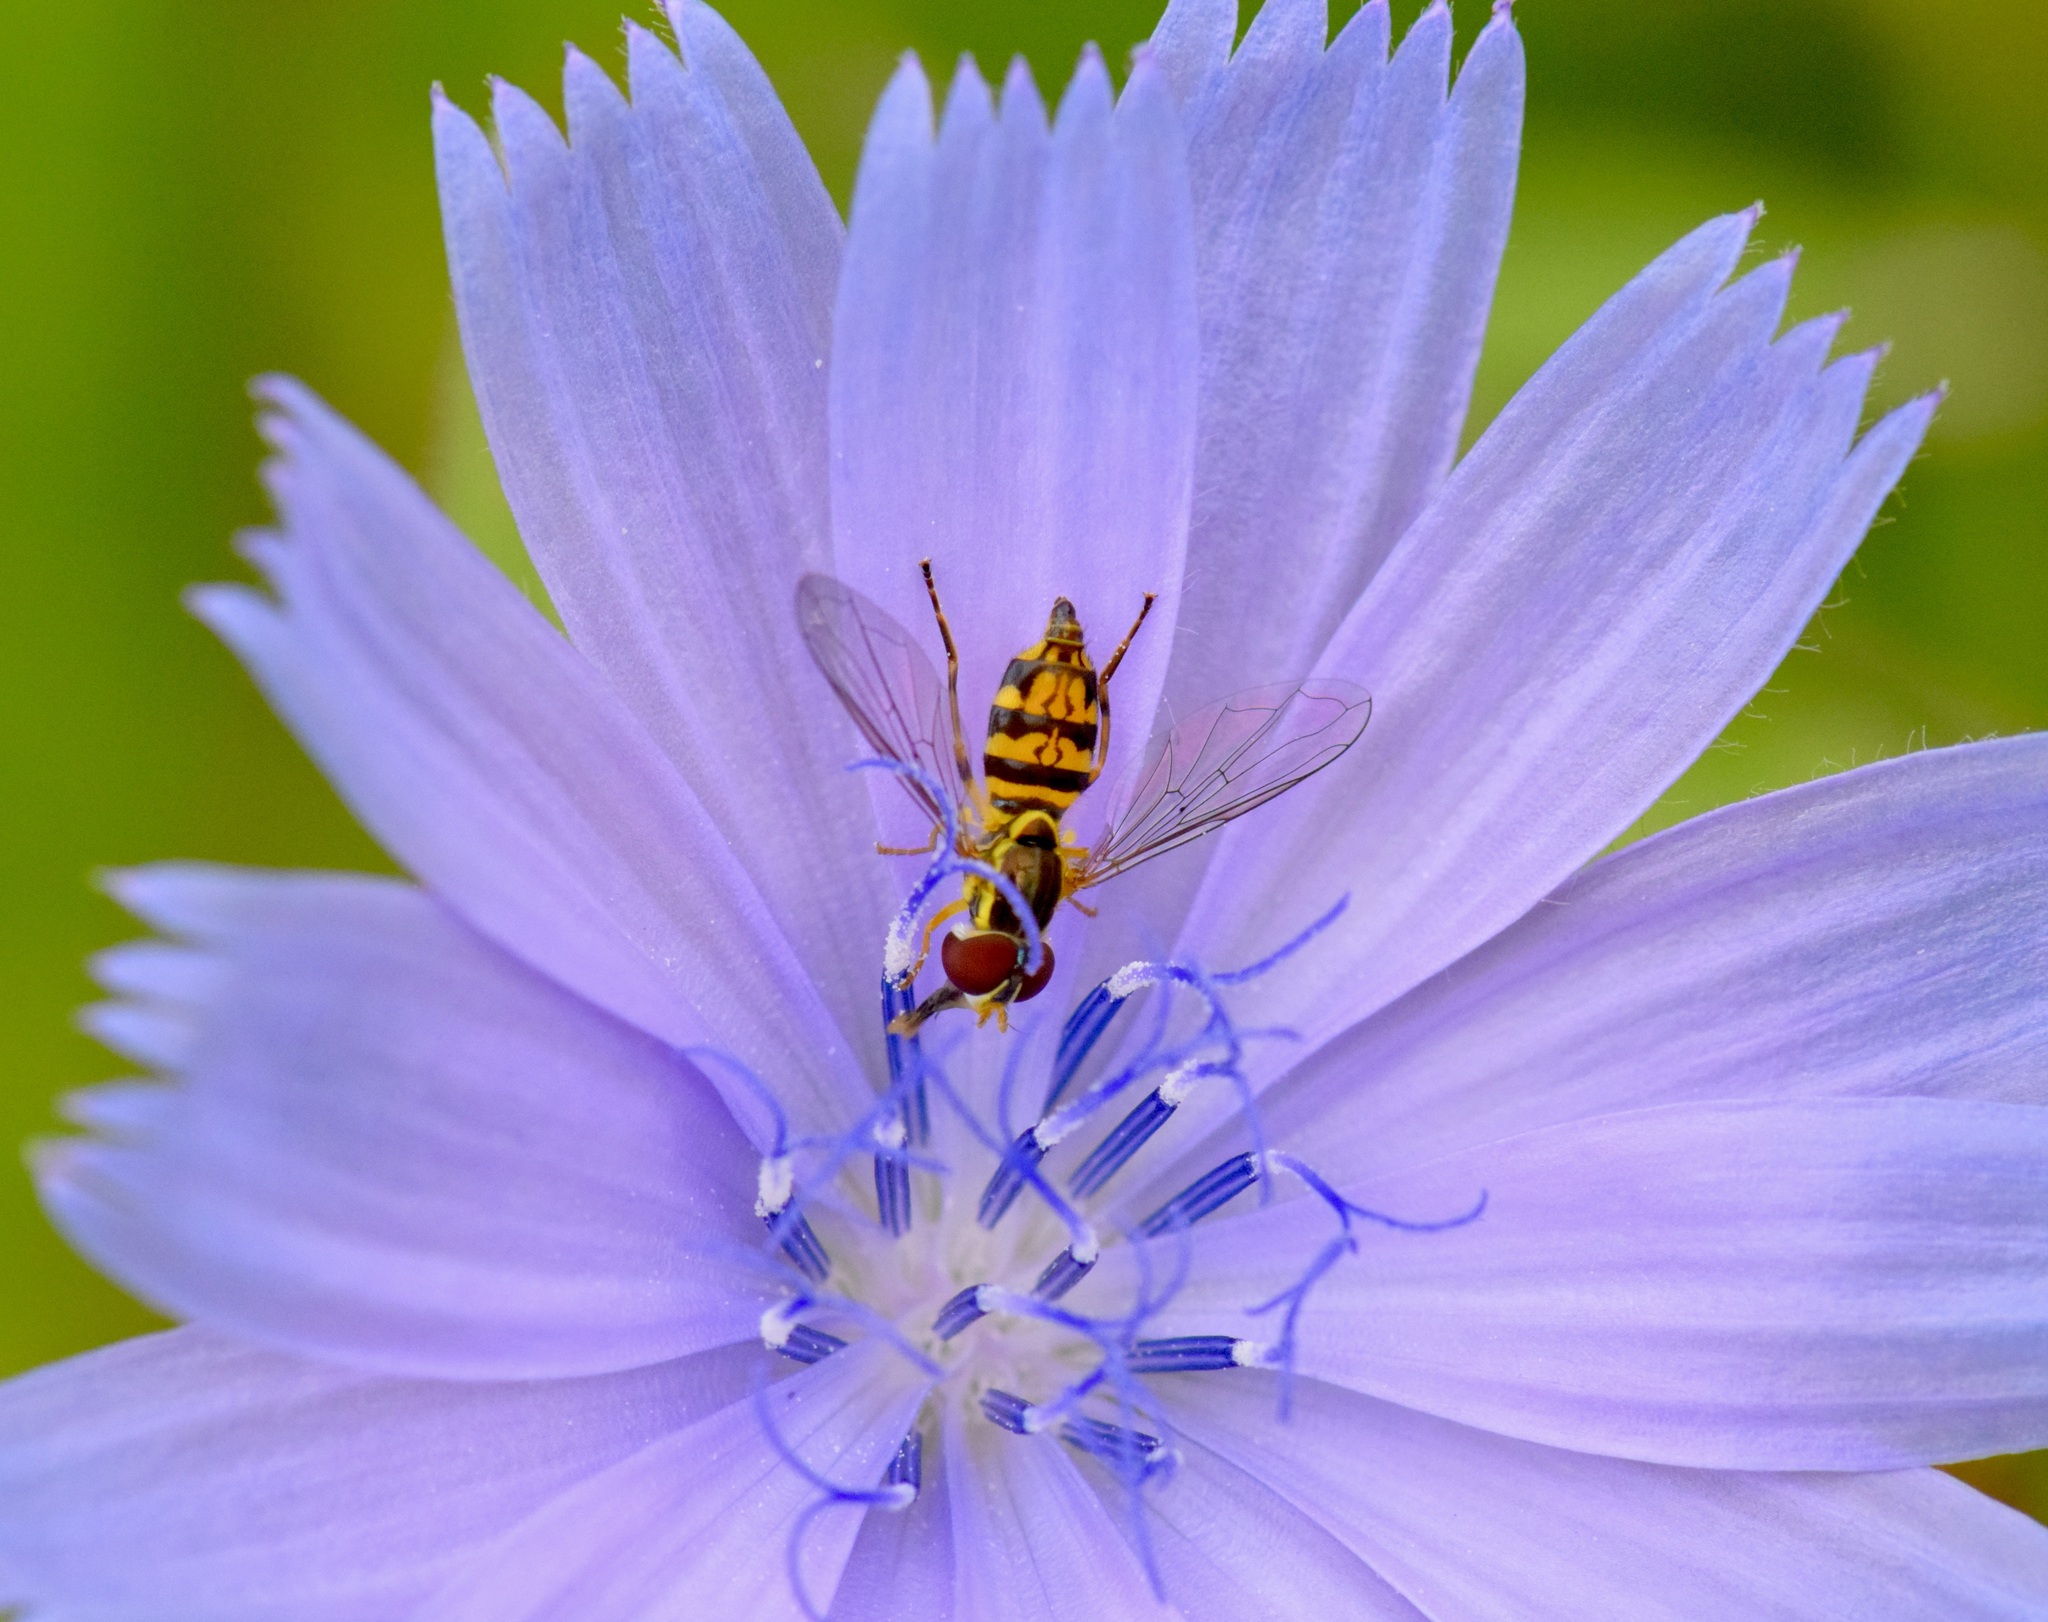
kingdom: Animalia
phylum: Arthropoda
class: Insecta
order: Diptera
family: Syrphidae
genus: Toxomerus
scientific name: Toxomerus geminatus
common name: Eastern calligrapher
